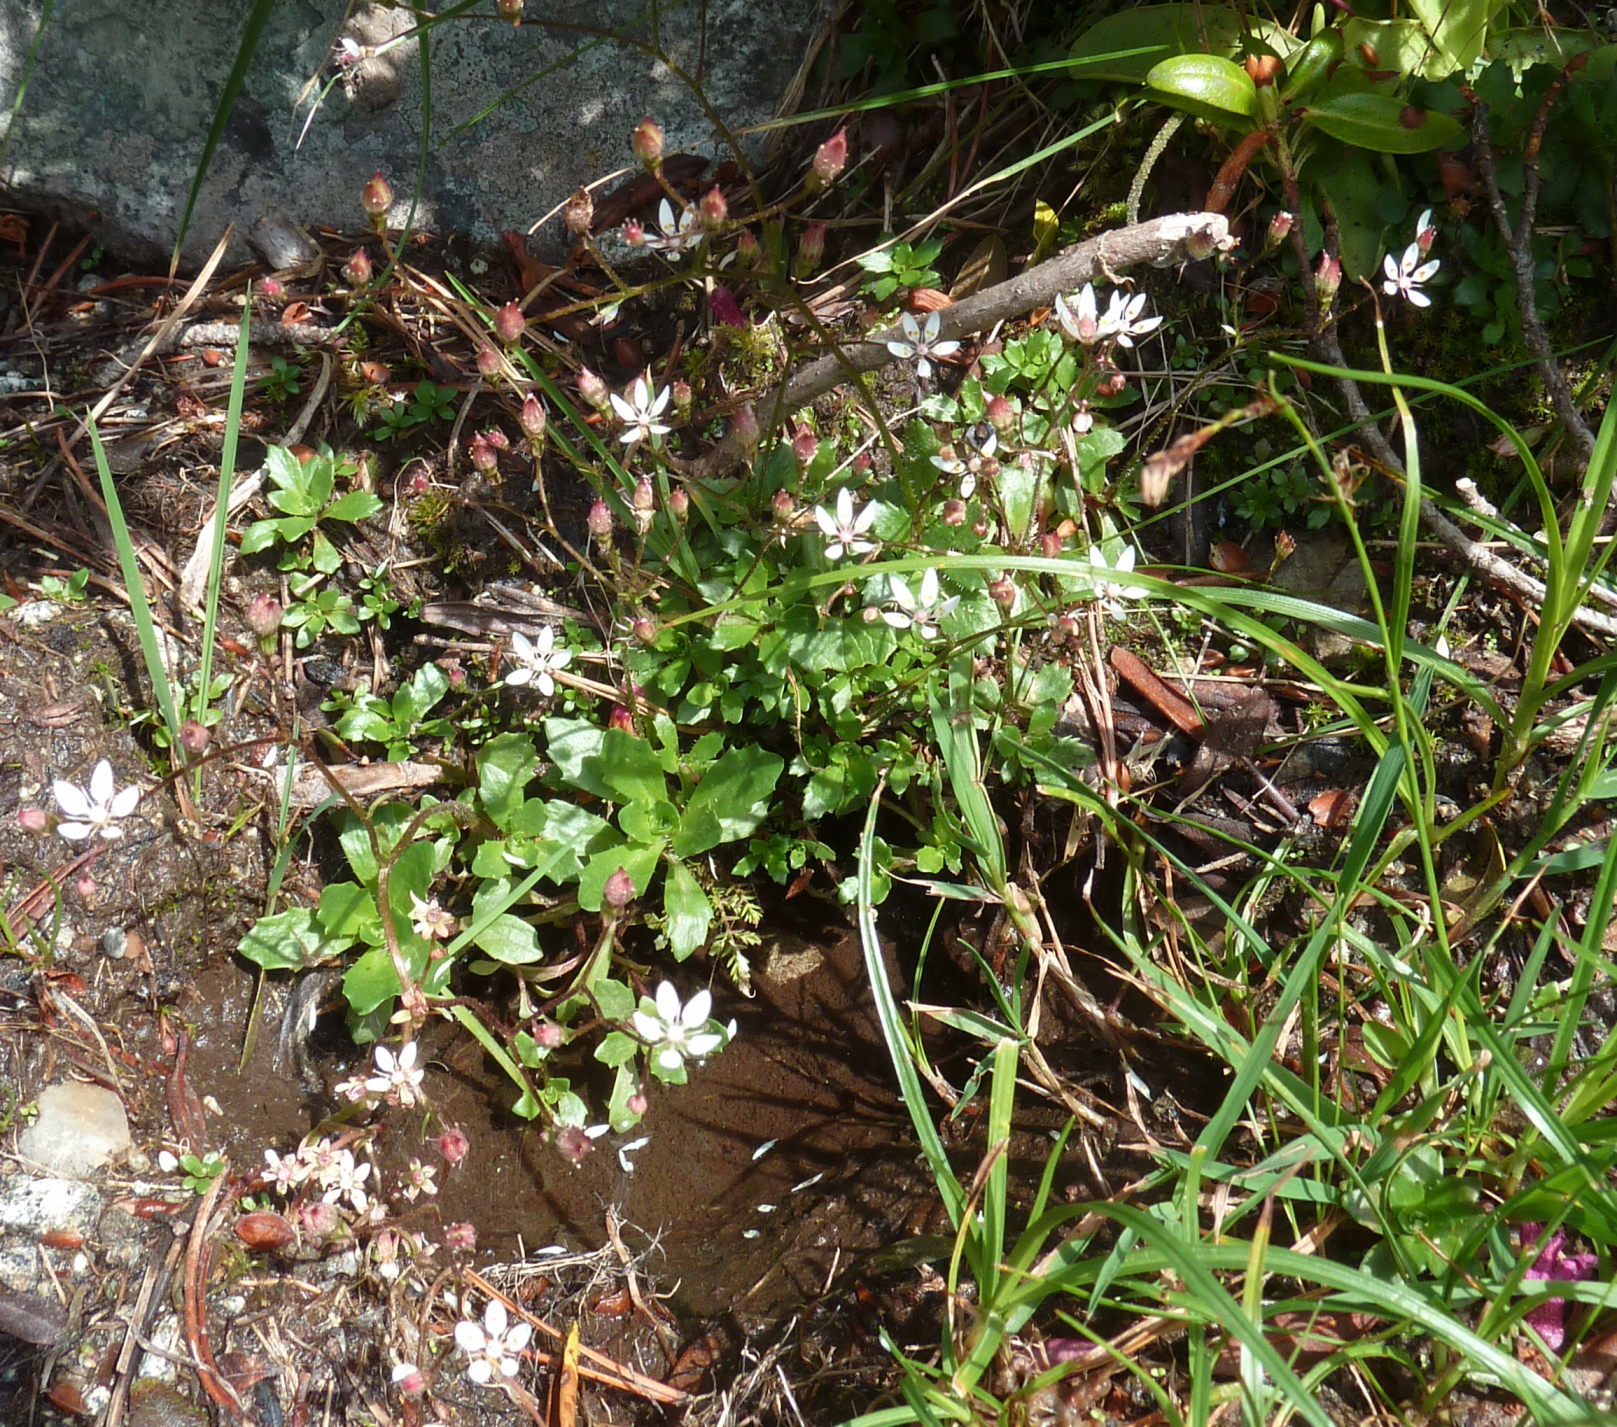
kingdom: Plantae
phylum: Tracheophyta
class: Magnoliopsida
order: Saxifragales
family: Saxifragaceae
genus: Micranthes
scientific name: Micranthes stellaris
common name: Starry saxifrage
